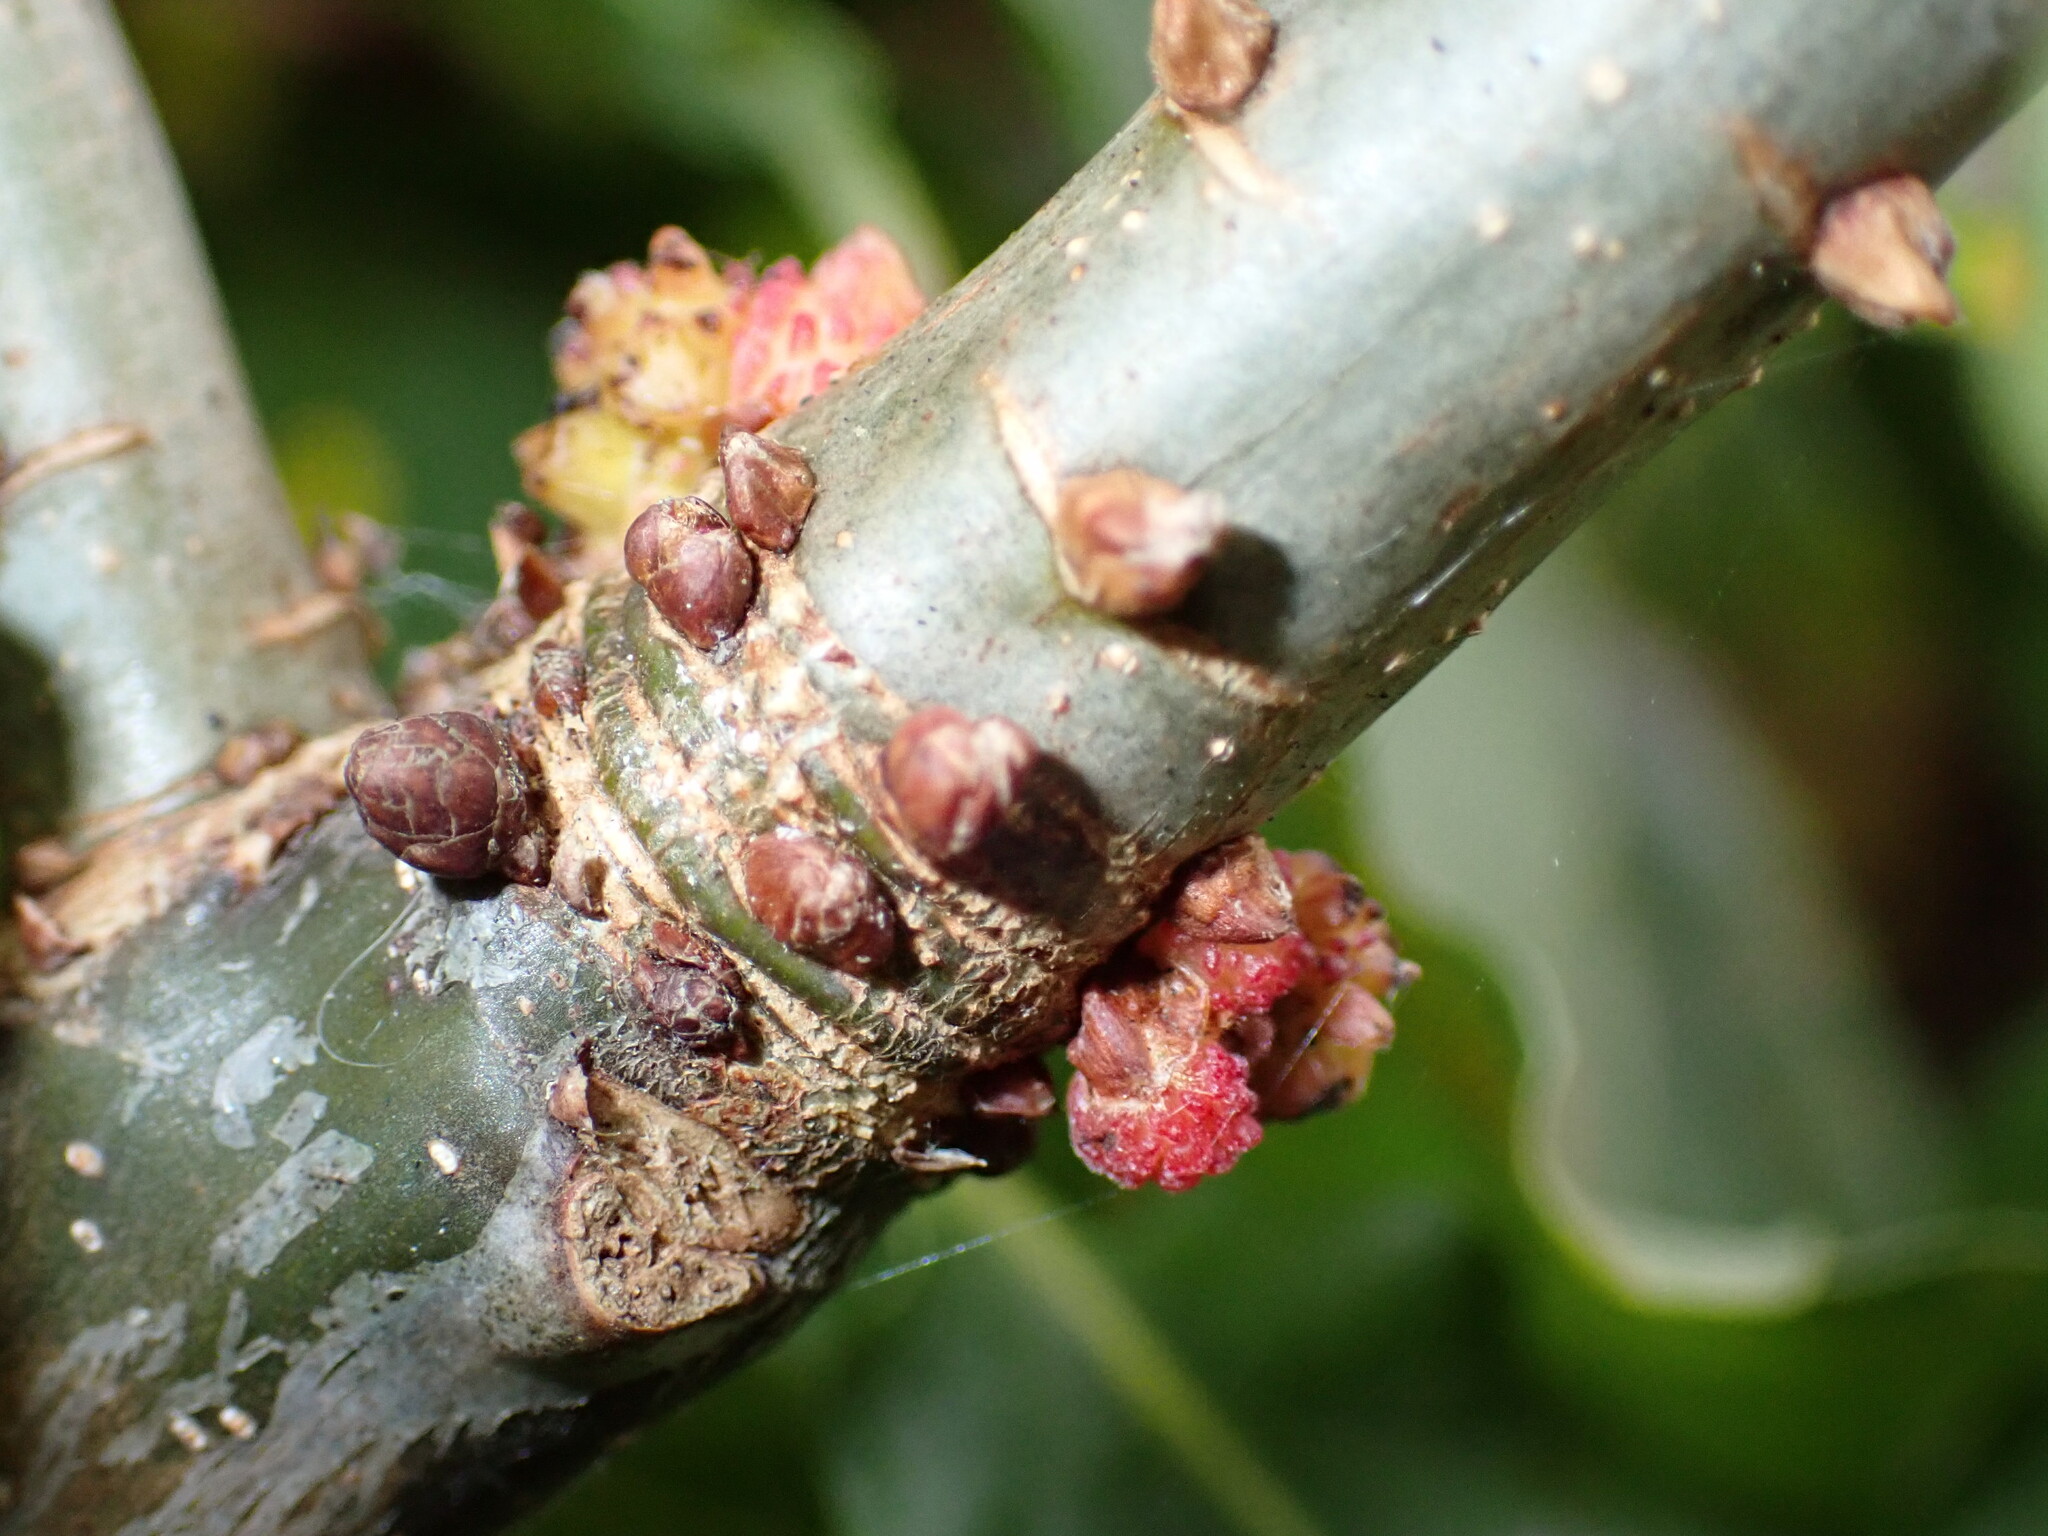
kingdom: Animalia
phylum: Arthropoda
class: Insecta
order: Hymenoptera
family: Cynipidae
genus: Andricus
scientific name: Andricus gemmeus
